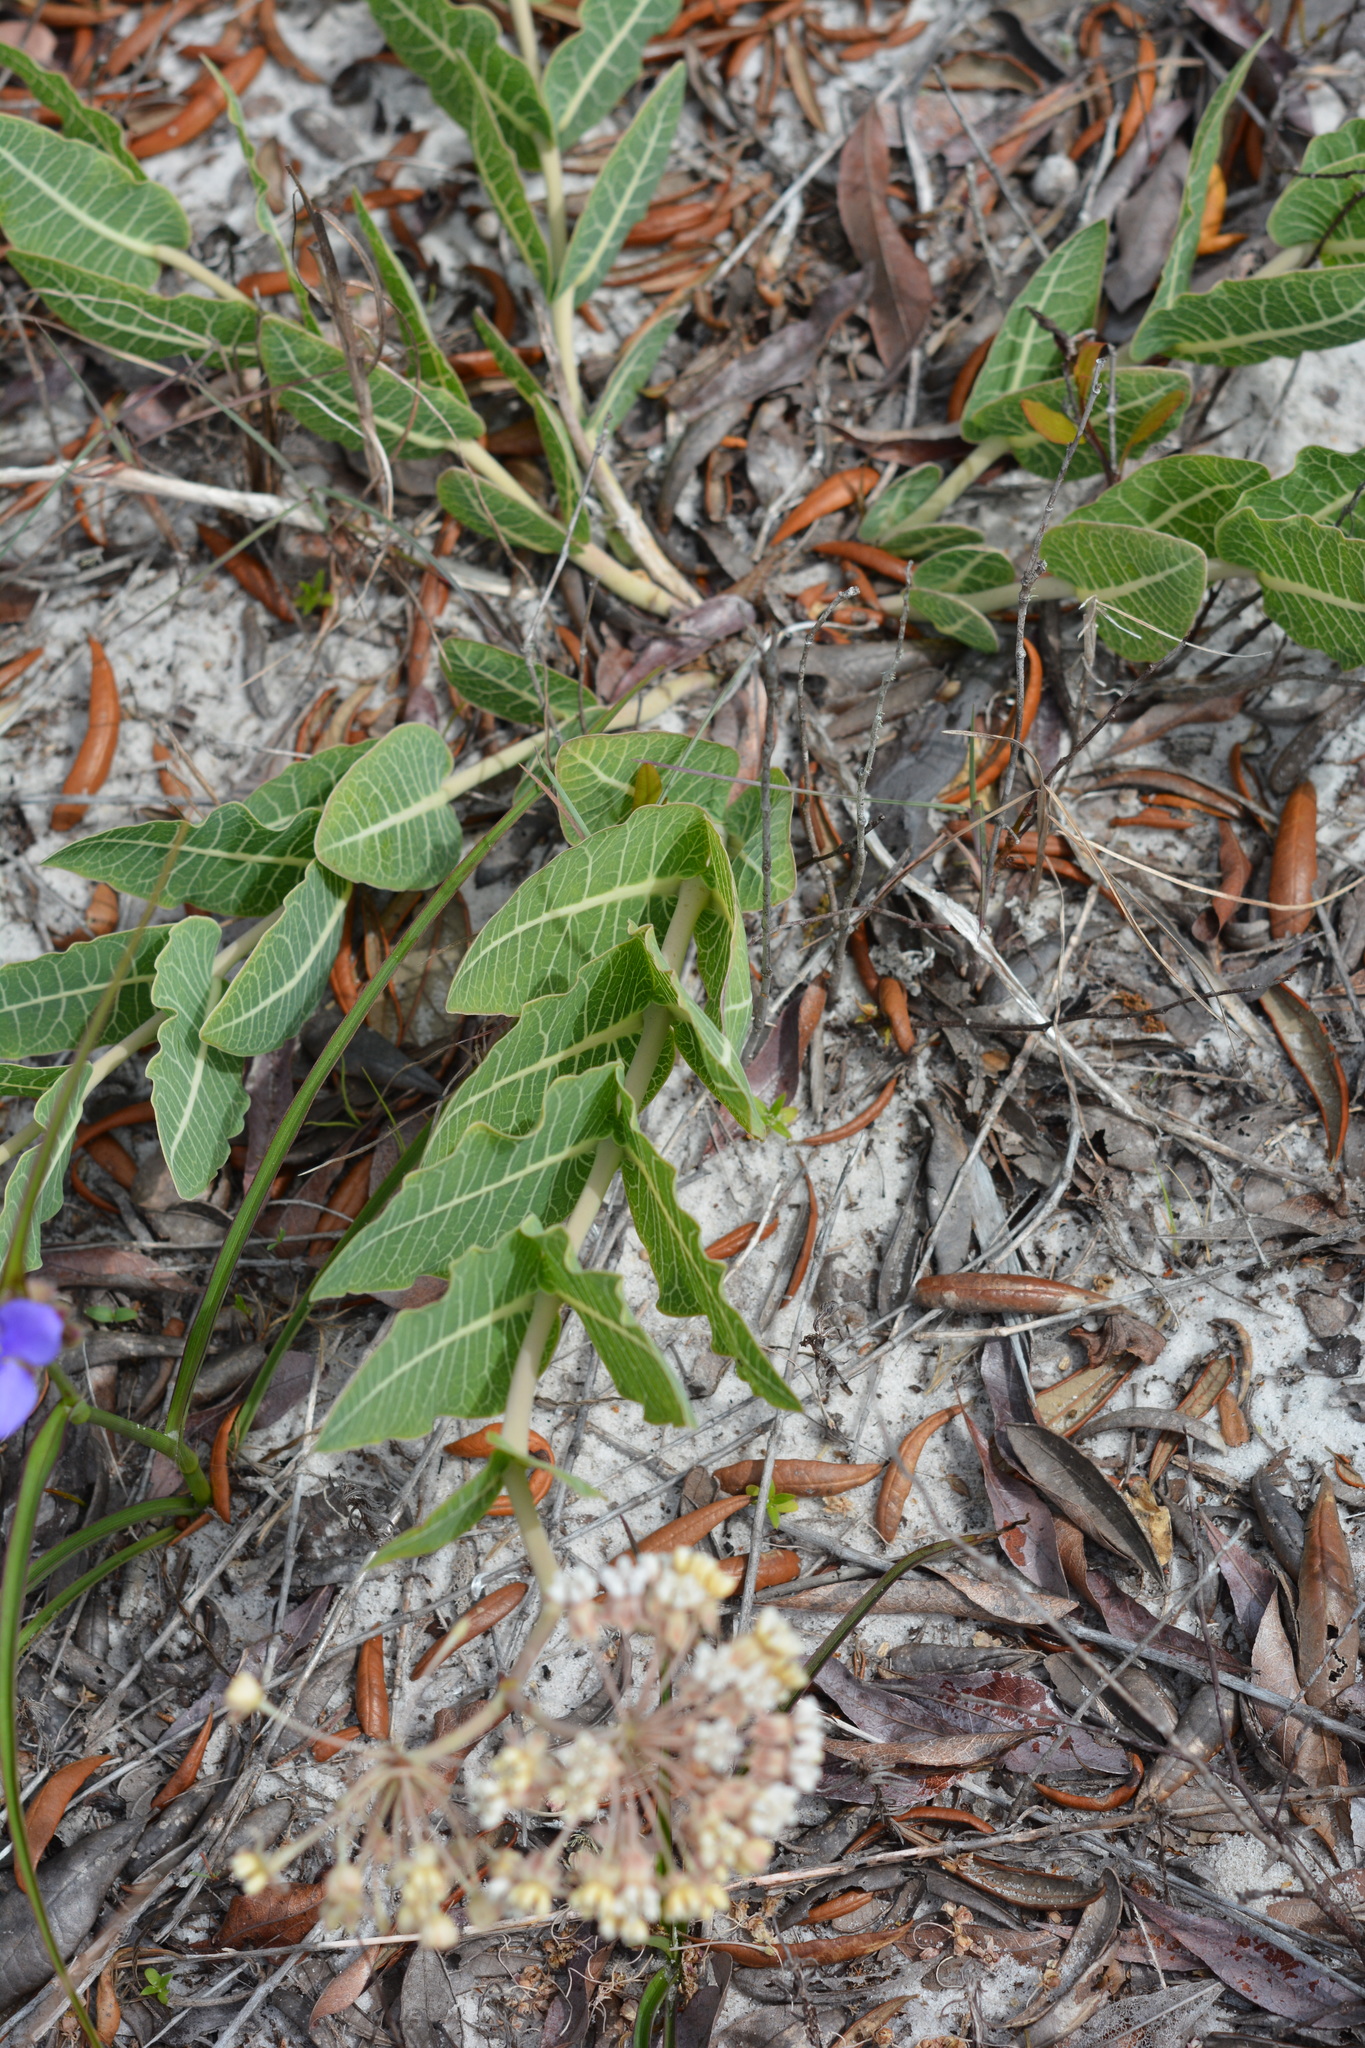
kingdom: Plantae
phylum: Tracheophyta
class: Magnoliopsida
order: Gentianales
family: Apocynaceae
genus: Asclepias
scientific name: Asclepias humistrata
